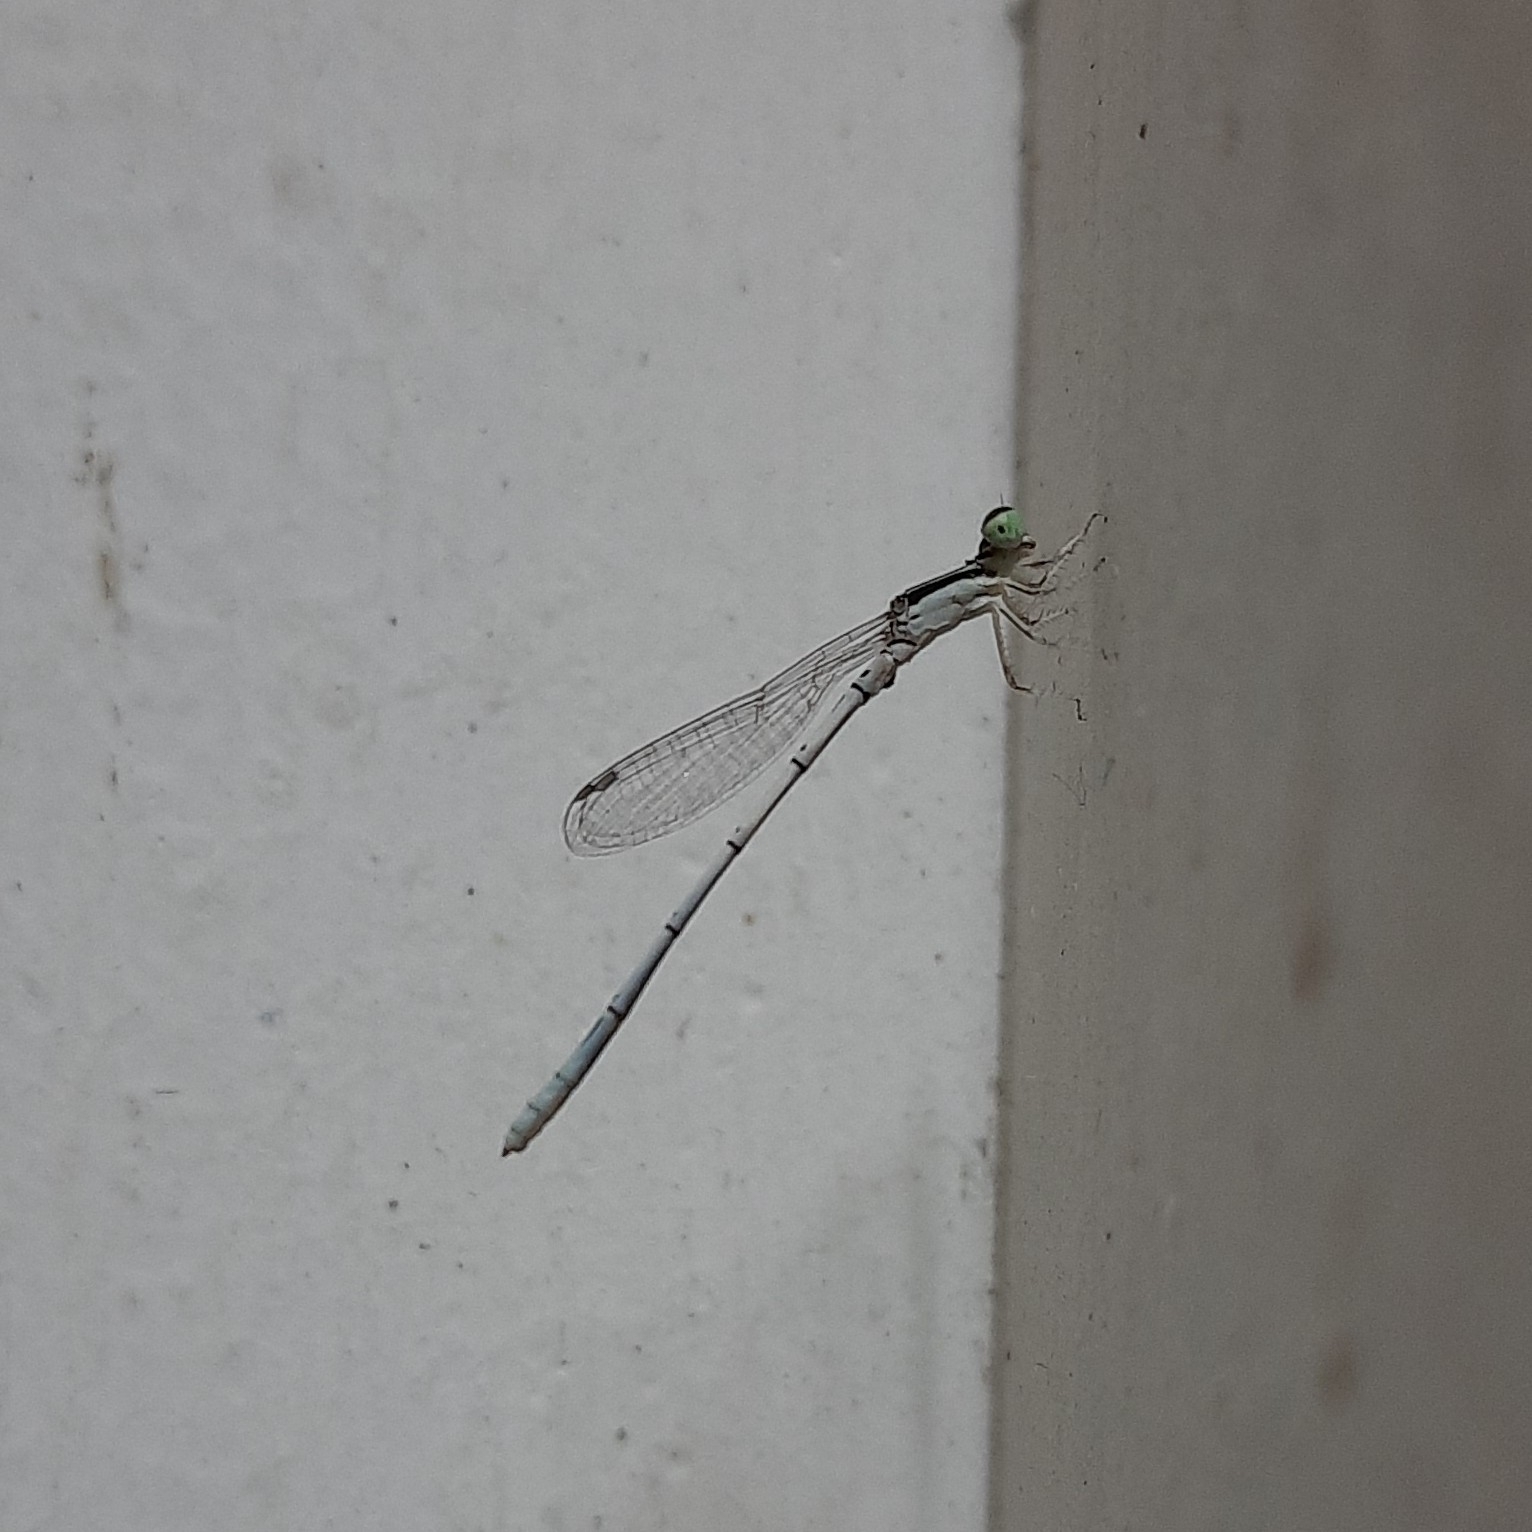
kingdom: Animalia
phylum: Arthropoda
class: Insecta
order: Odonata
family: Coenagrionidae
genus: Agriocnemis
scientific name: Agriocnemis pieris
